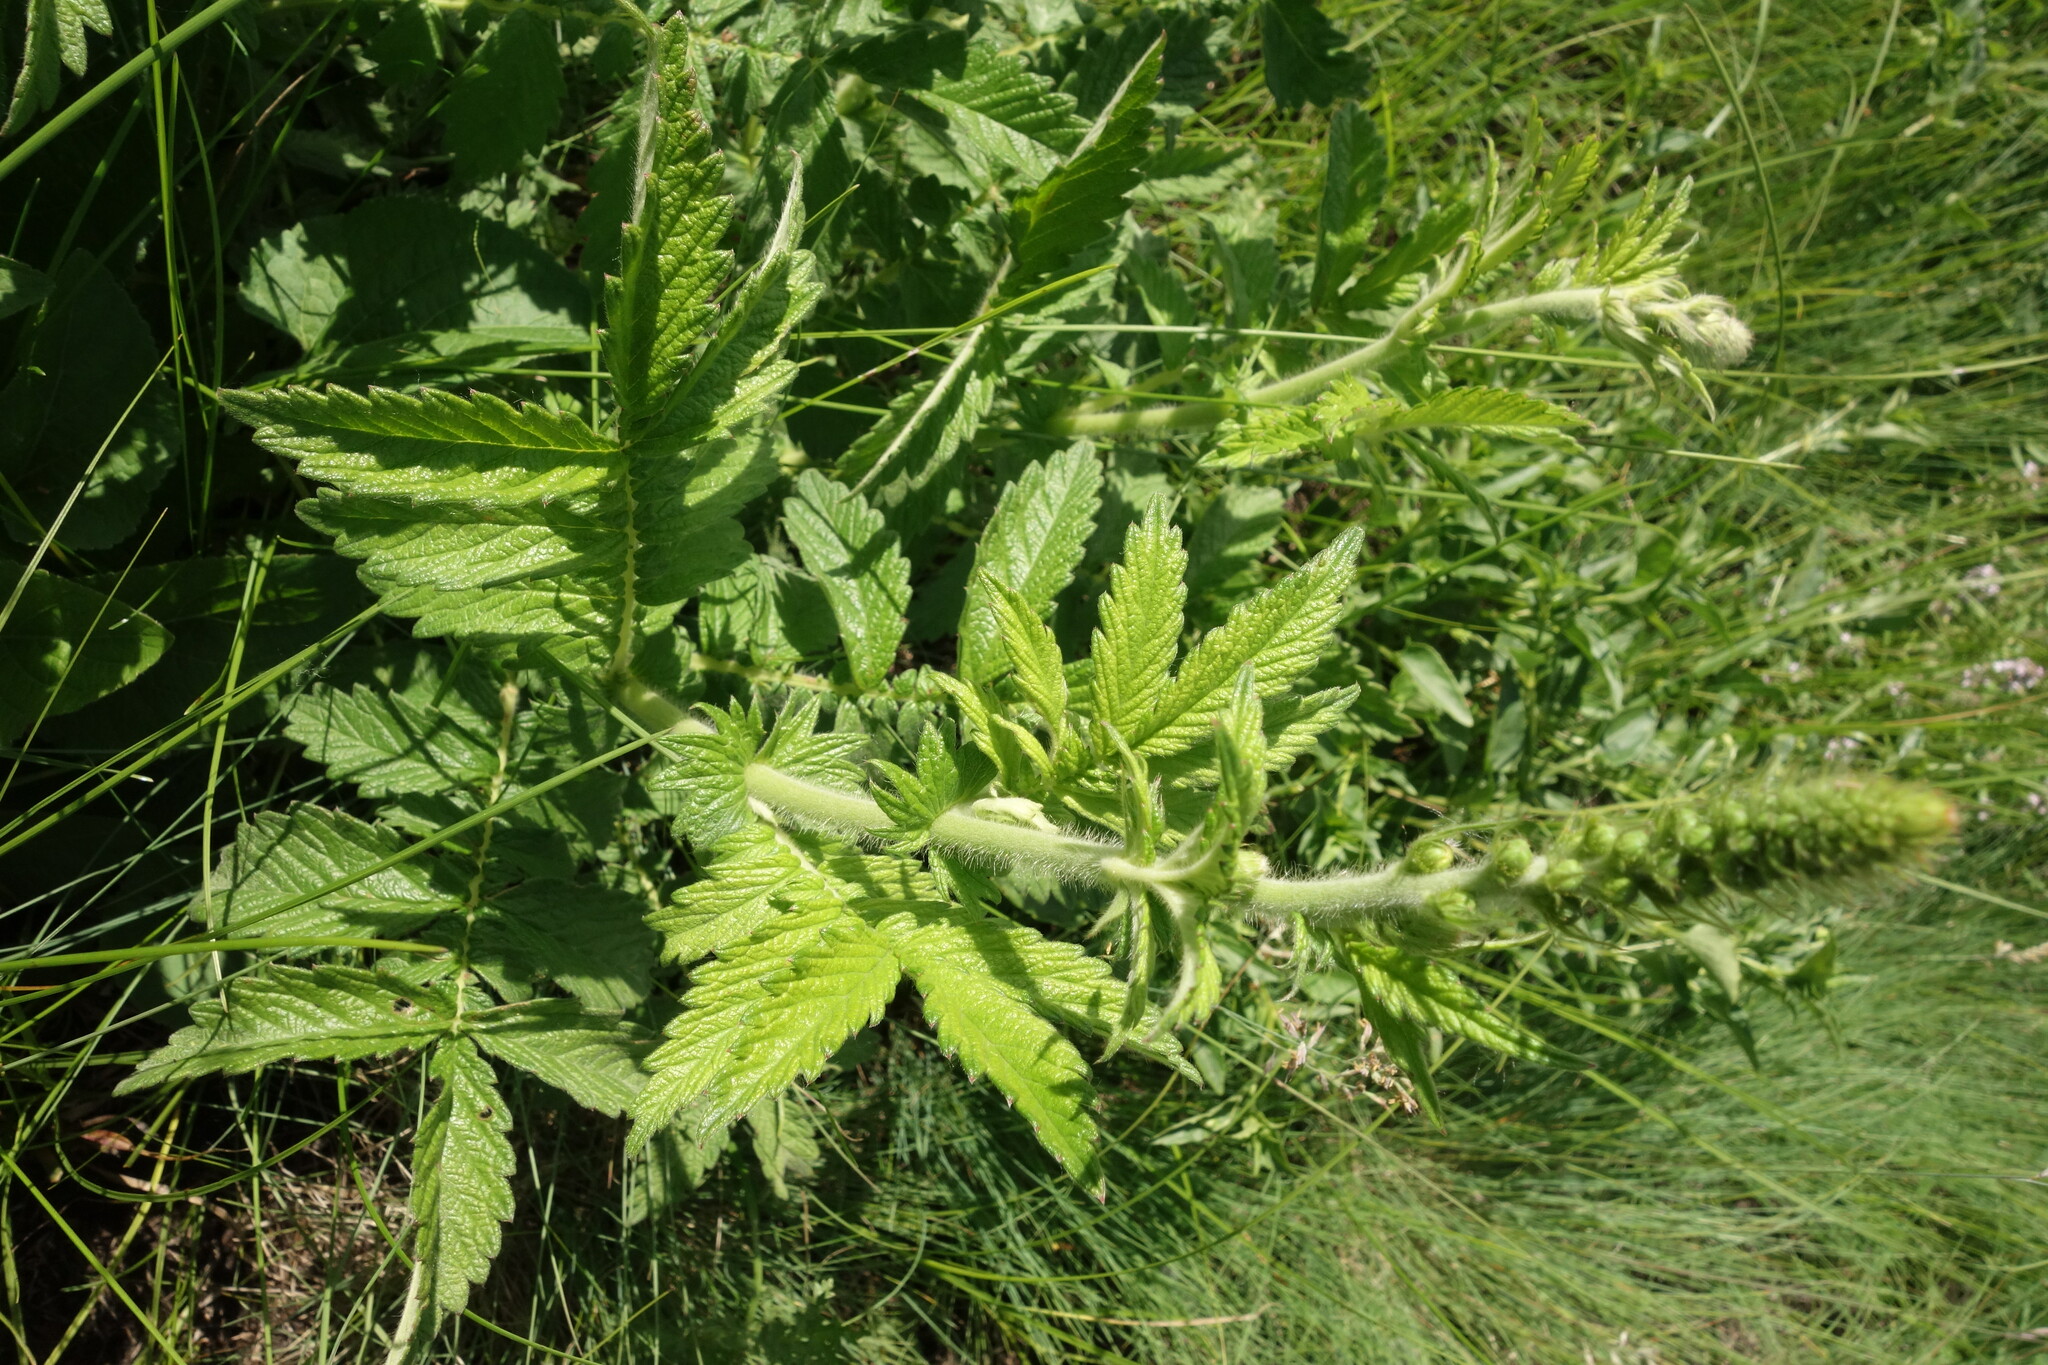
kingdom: Plantae
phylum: Tracheophyta
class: Magnoliopsida
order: Rosales
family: Rosaceae
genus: Agrimonia
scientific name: Agrimonia eupatoria
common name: Agrimony
